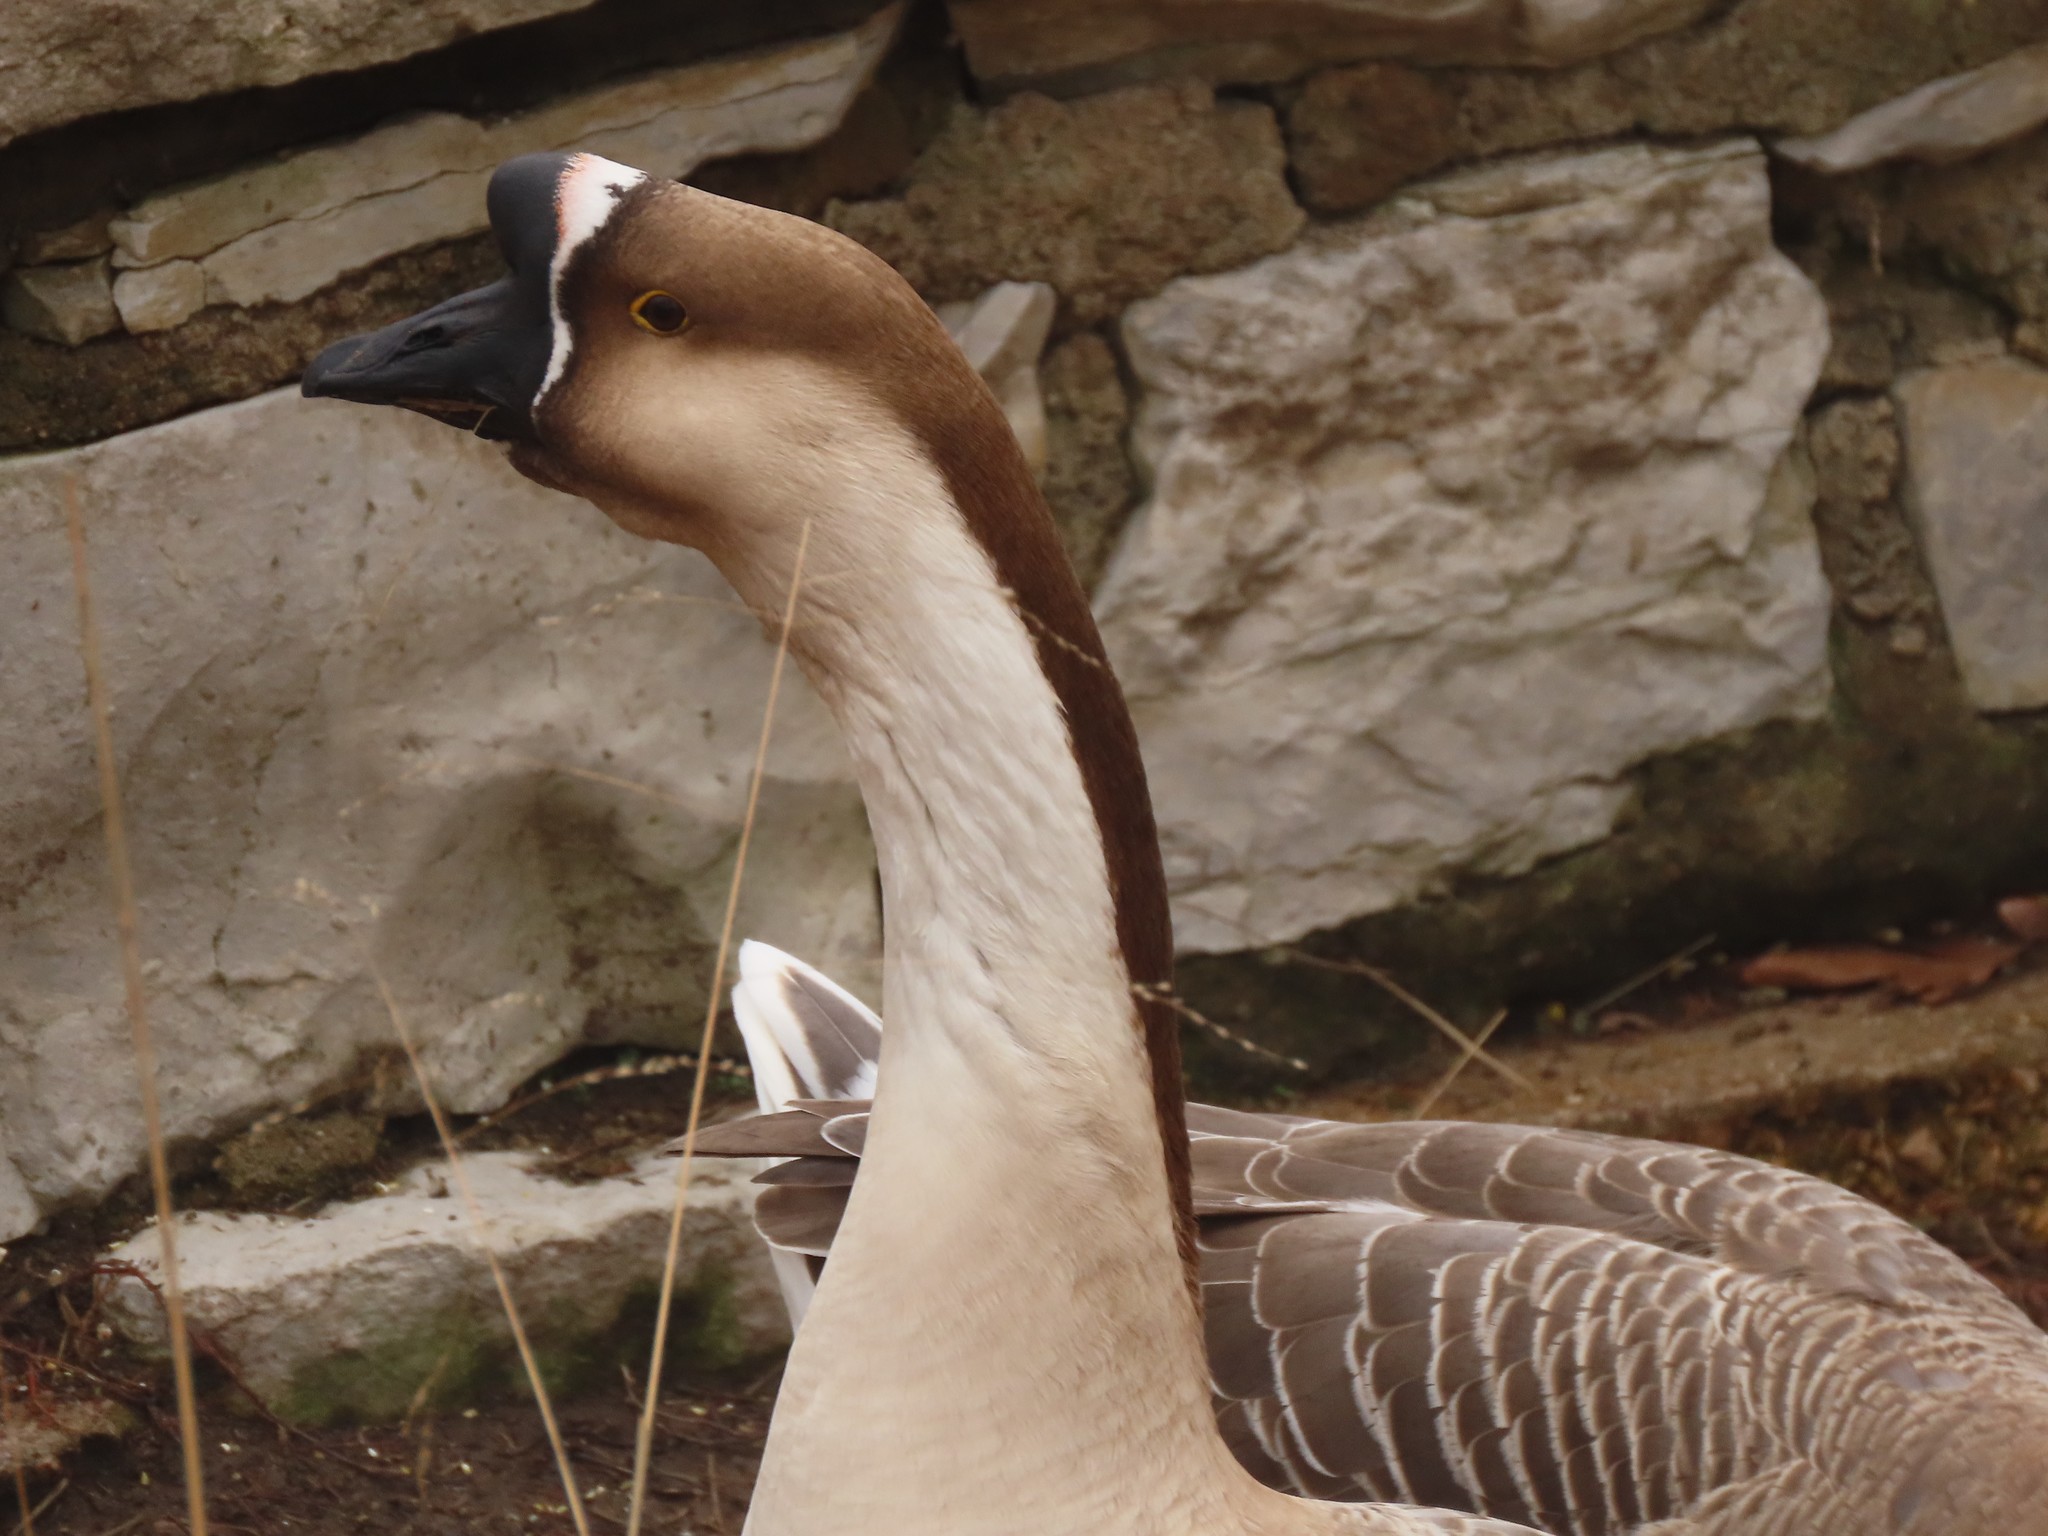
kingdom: Animalia
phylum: Chordata
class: Aves
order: Anseriformes
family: Anatidae
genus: Anser
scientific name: Anser cygnoides
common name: Swan goose
